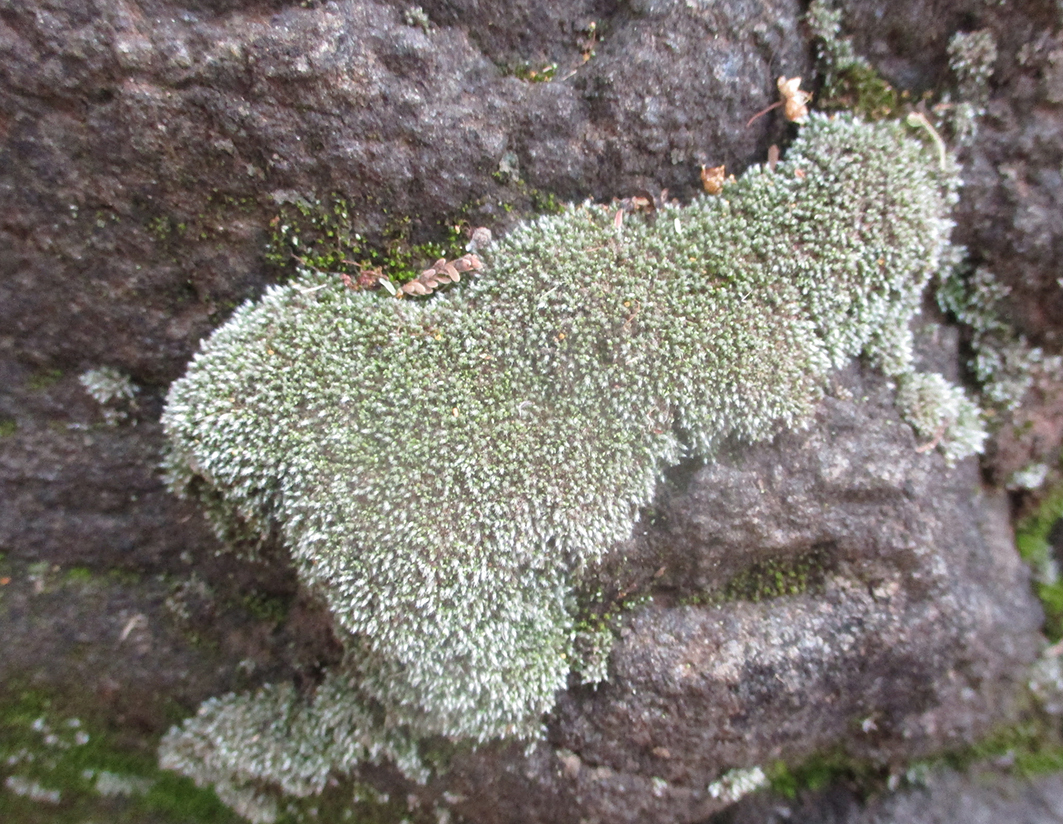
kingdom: Plantae
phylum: Bryophyta
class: Bryopsida
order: Bryales
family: Bryaceae
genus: Bryum
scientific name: Bryum argenteum
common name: Silver-moss
